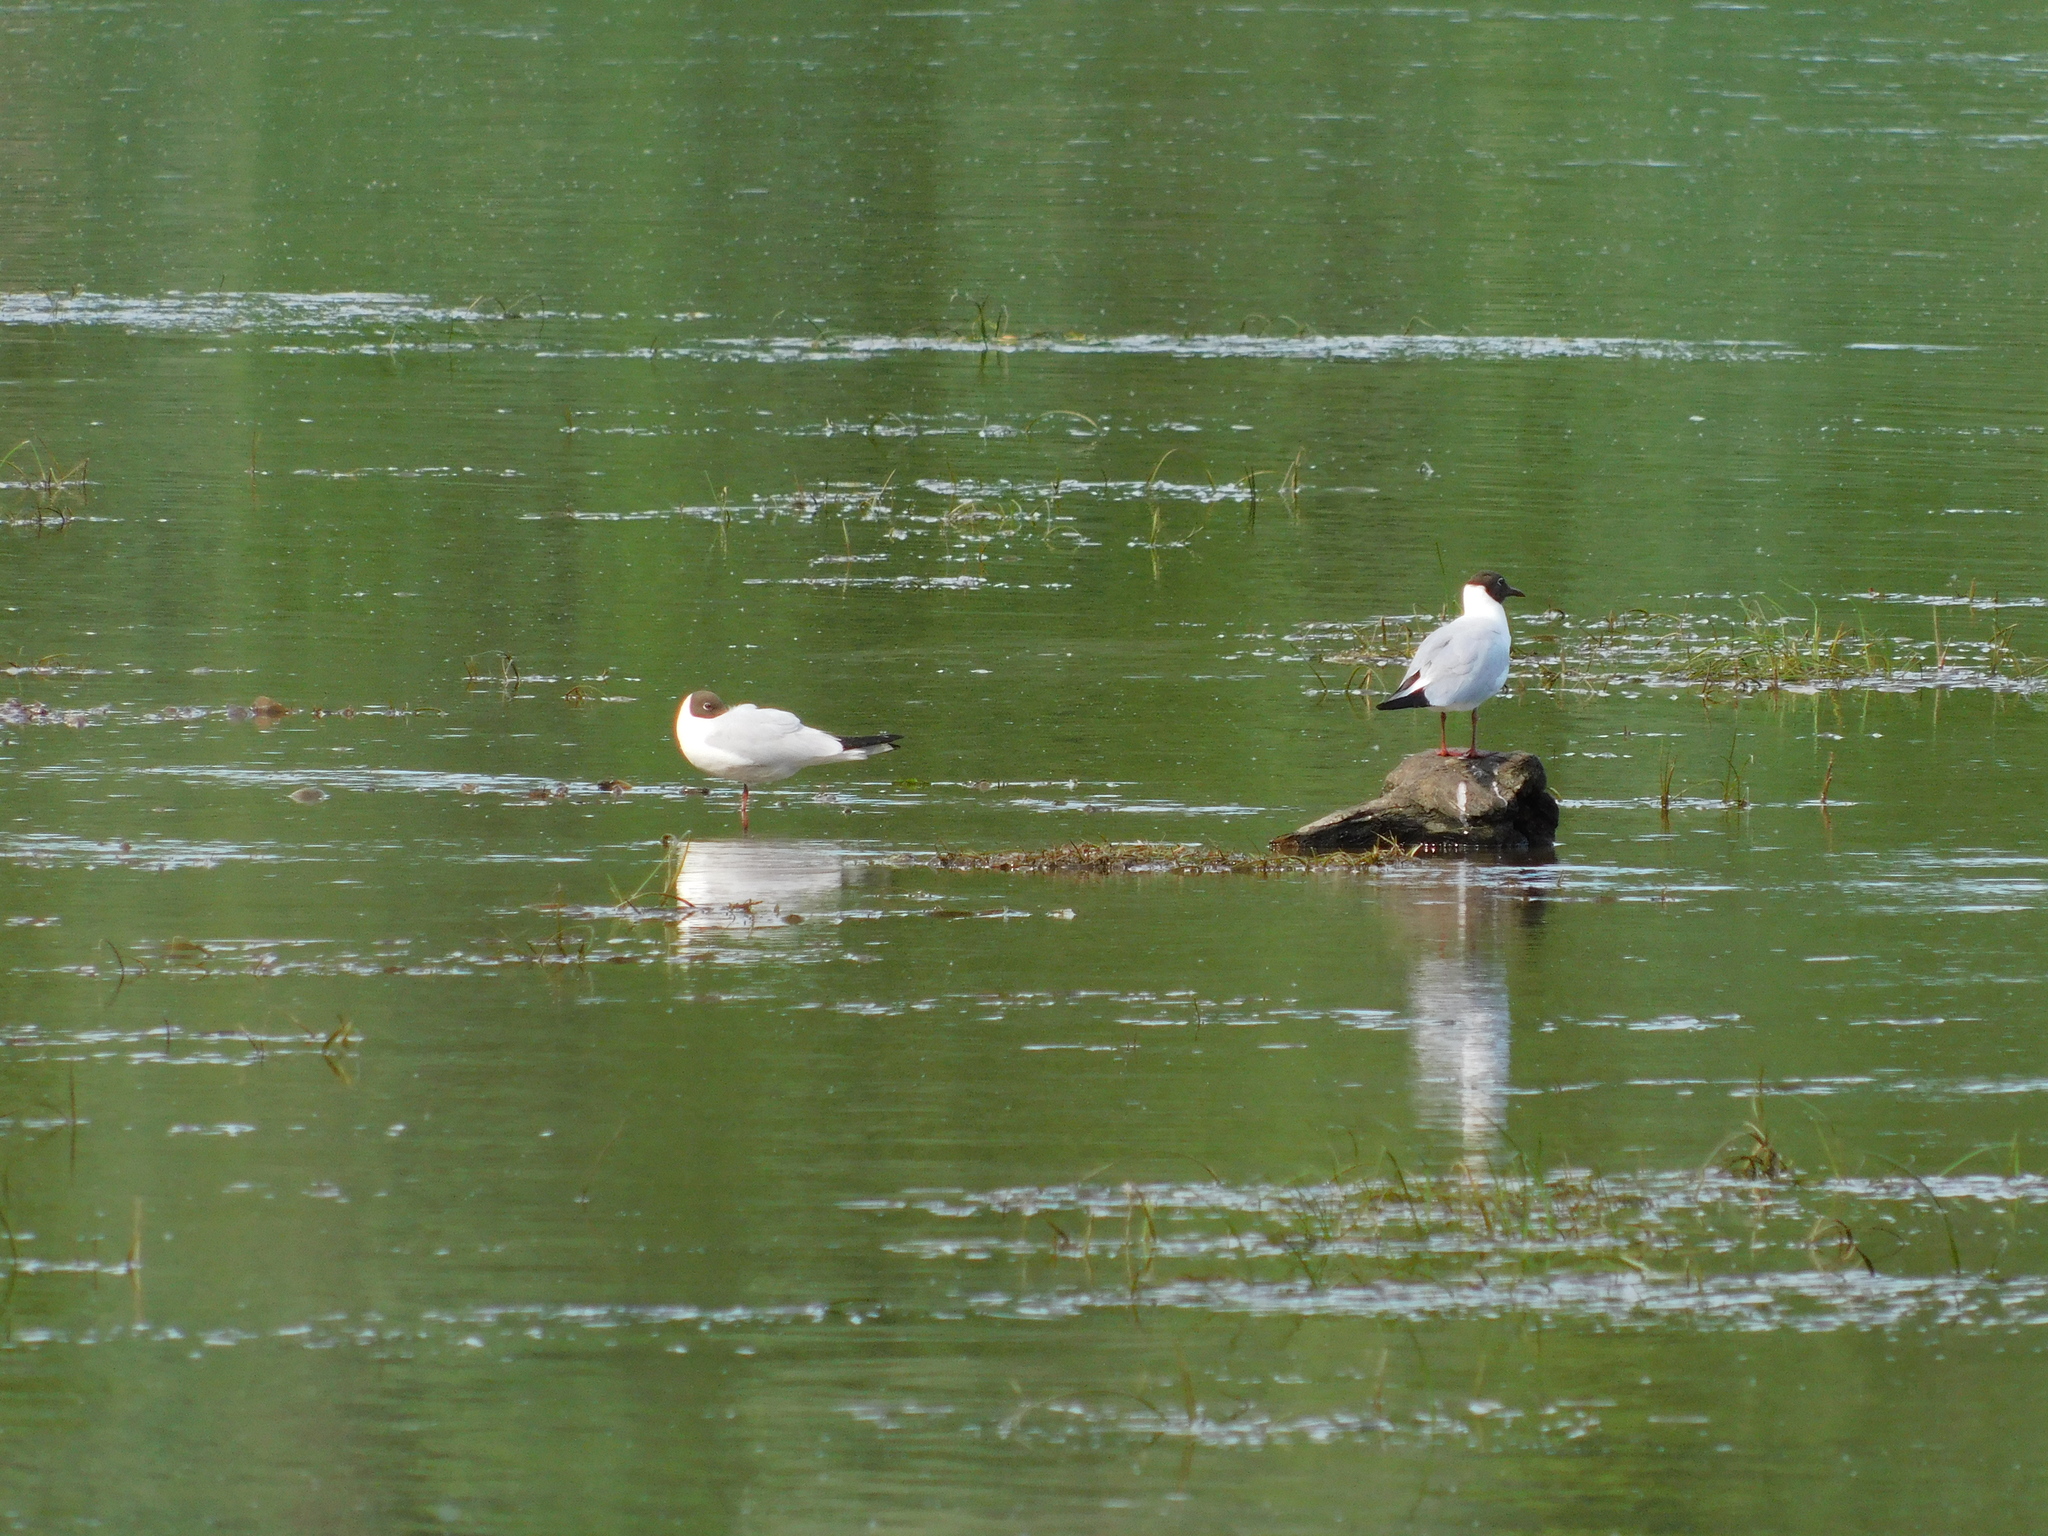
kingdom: Animalia
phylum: Chordata
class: Aves
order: Charadriiformes
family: Laridae
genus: Chroicocephalus
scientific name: Chroicocephalus ridibundus
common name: Black-headed gull
